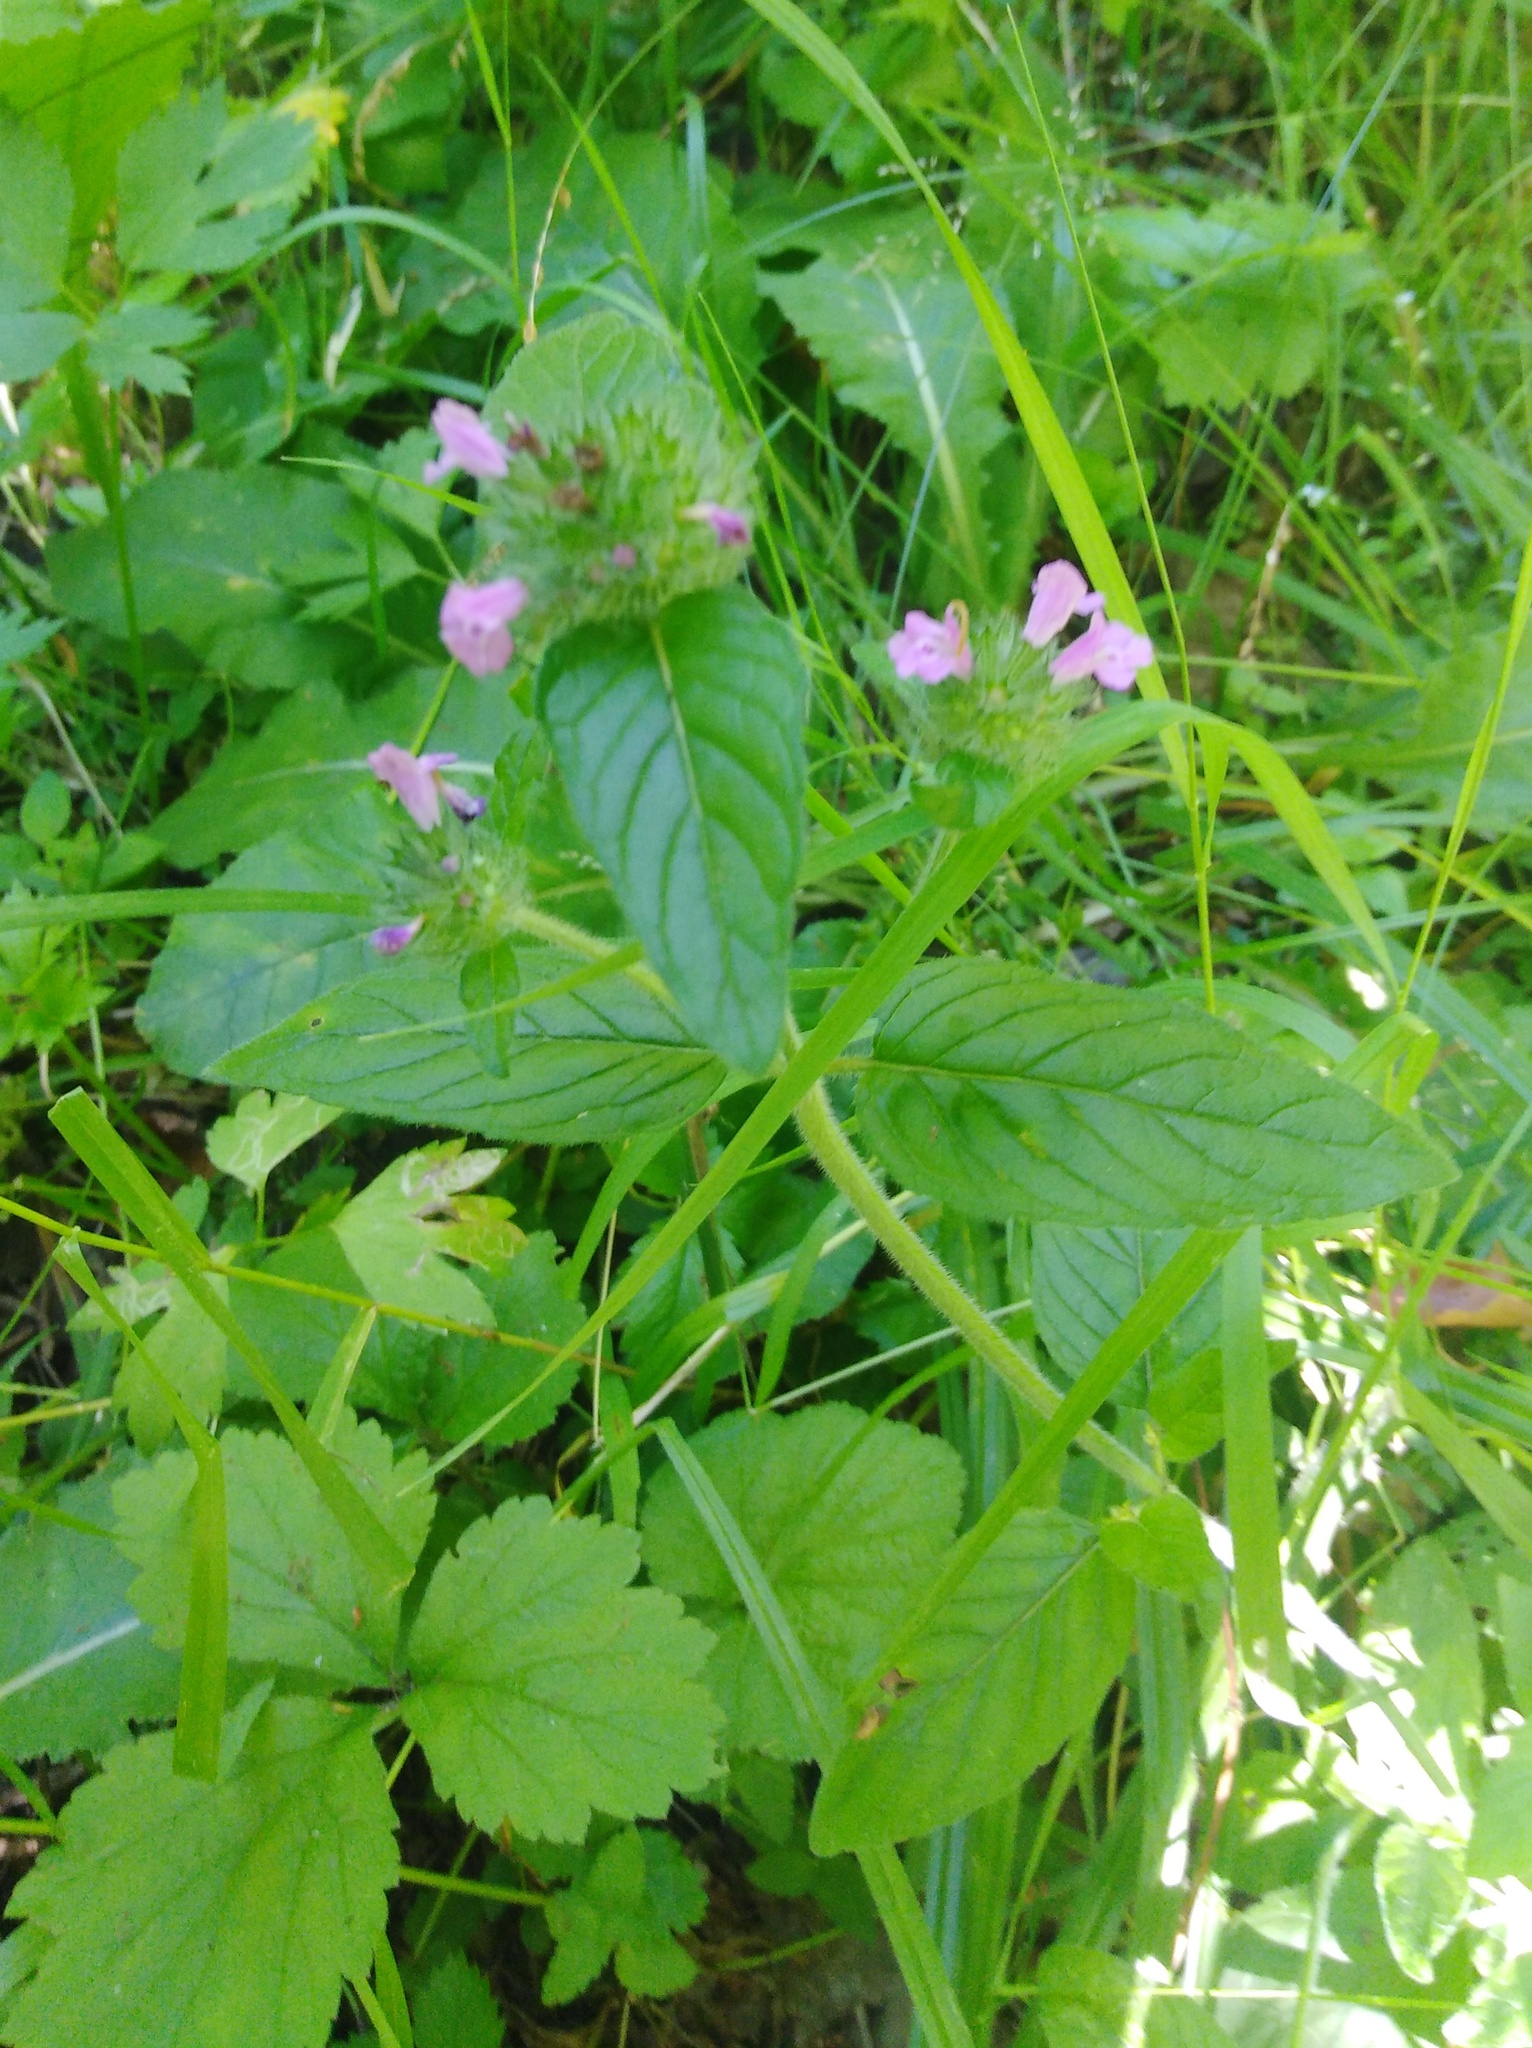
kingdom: Plantae
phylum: Tracheophyta
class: Magnoliopsida
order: Lamiales
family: Lamiaceae
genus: Clinopodium
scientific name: Clinopodium vulgare
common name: Wild basil
